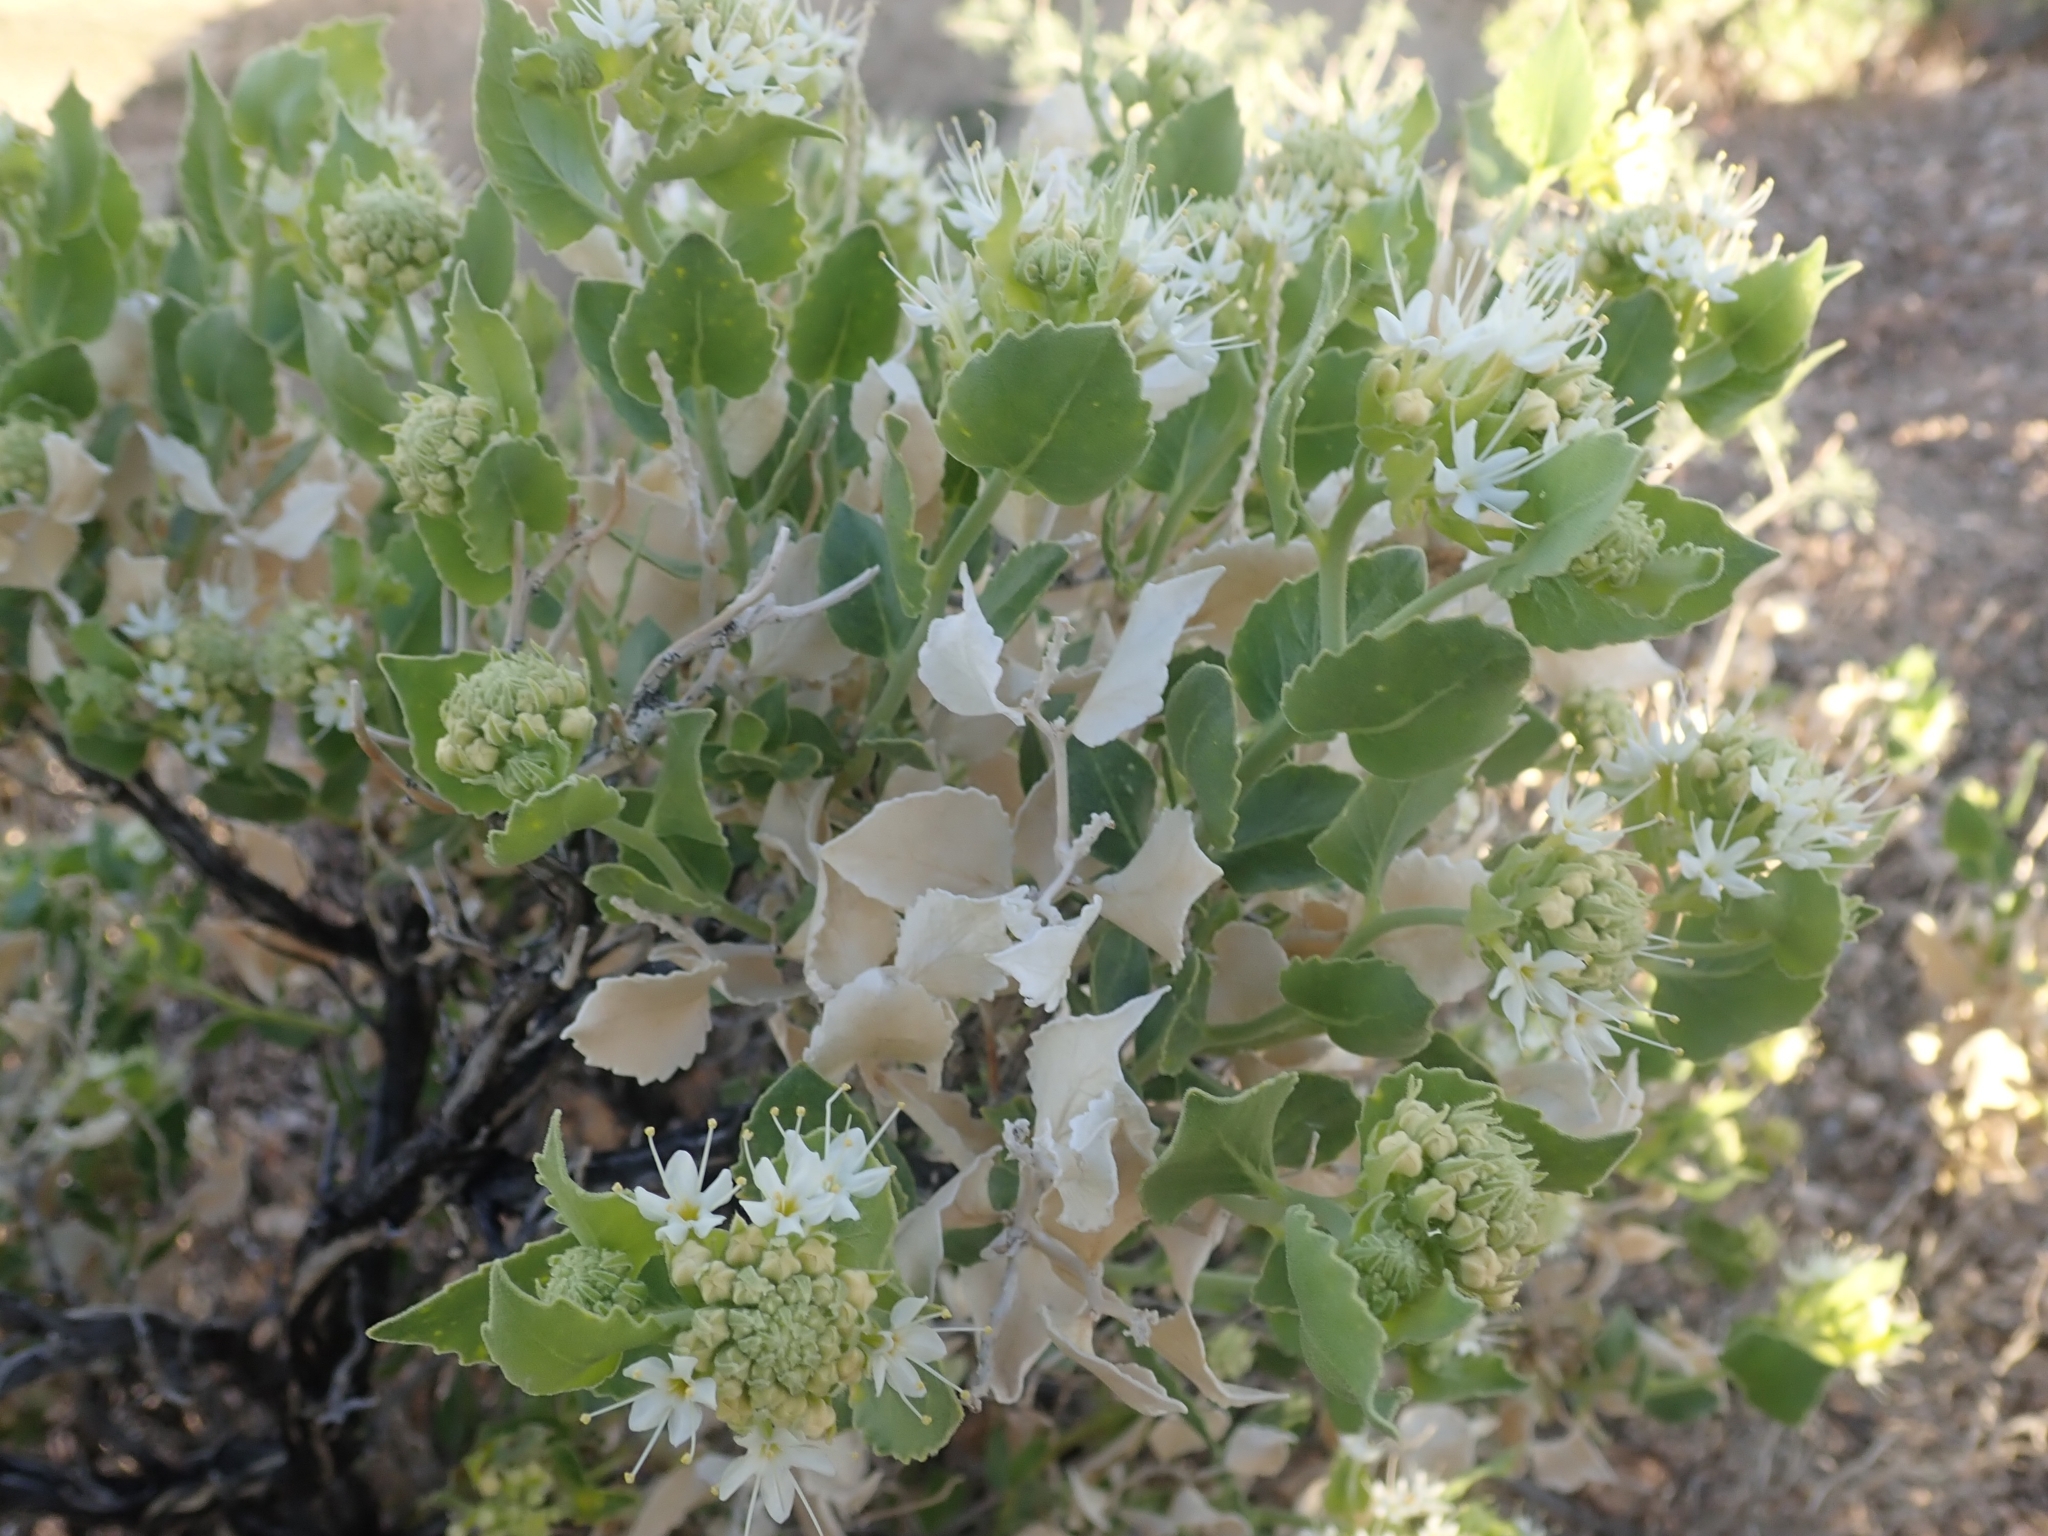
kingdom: Plantae
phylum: Tracheophyta
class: Magnoliopsida
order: Cornales
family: Loasaceae
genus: Petalonyx
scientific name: Petalonyx nitidus
